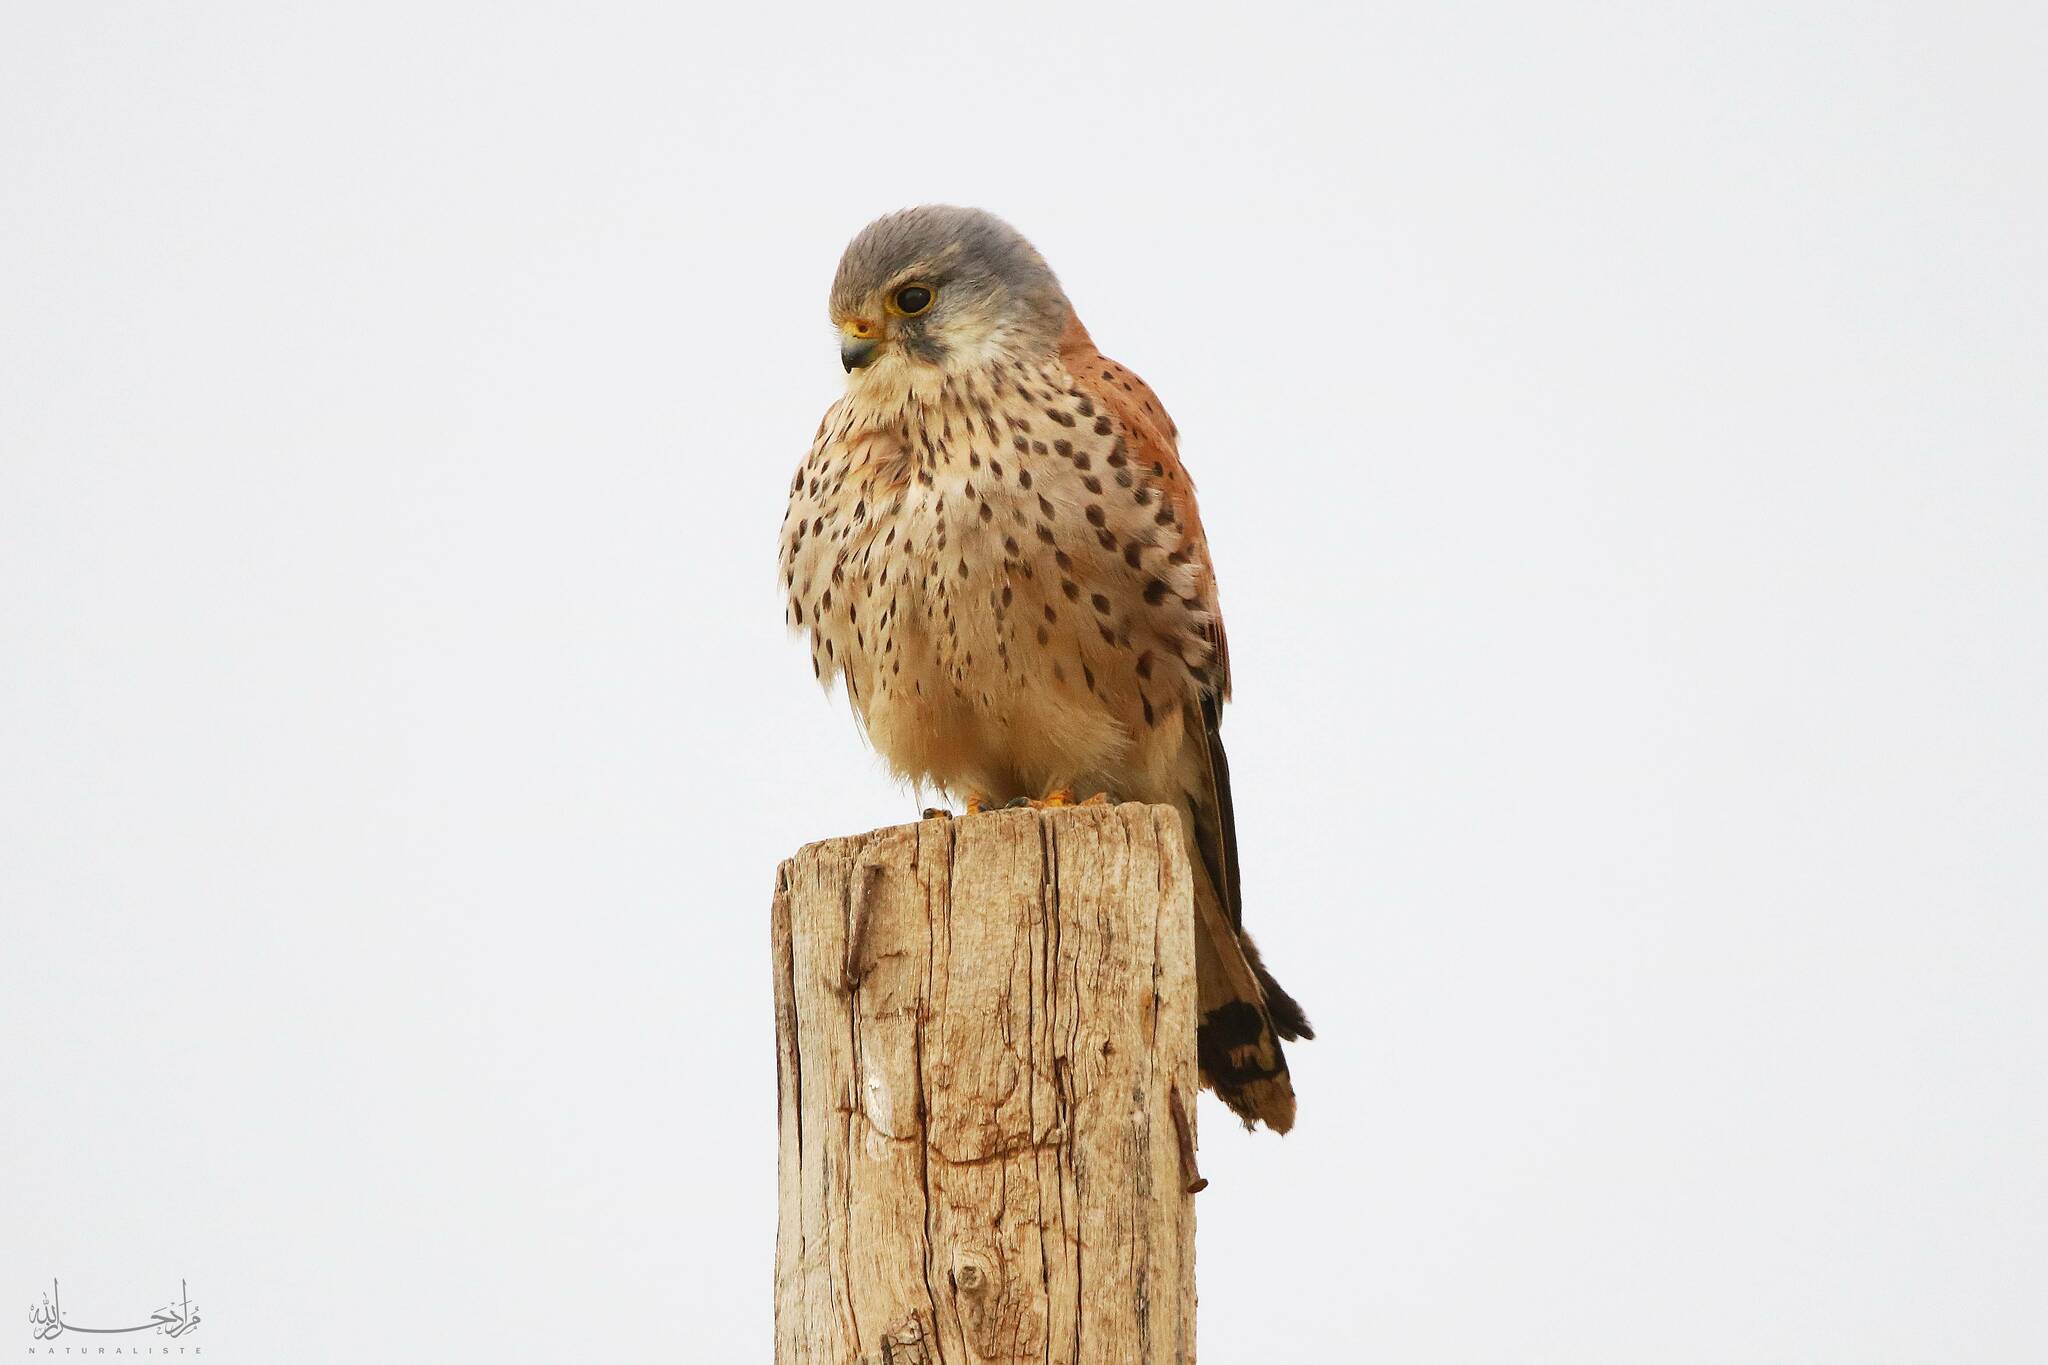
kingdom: Animalia
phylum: Chordata
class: Aves
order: Falconiformes
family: Falconidae
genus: Falco
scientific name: Falco tinnunculus
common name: Common kestrel
